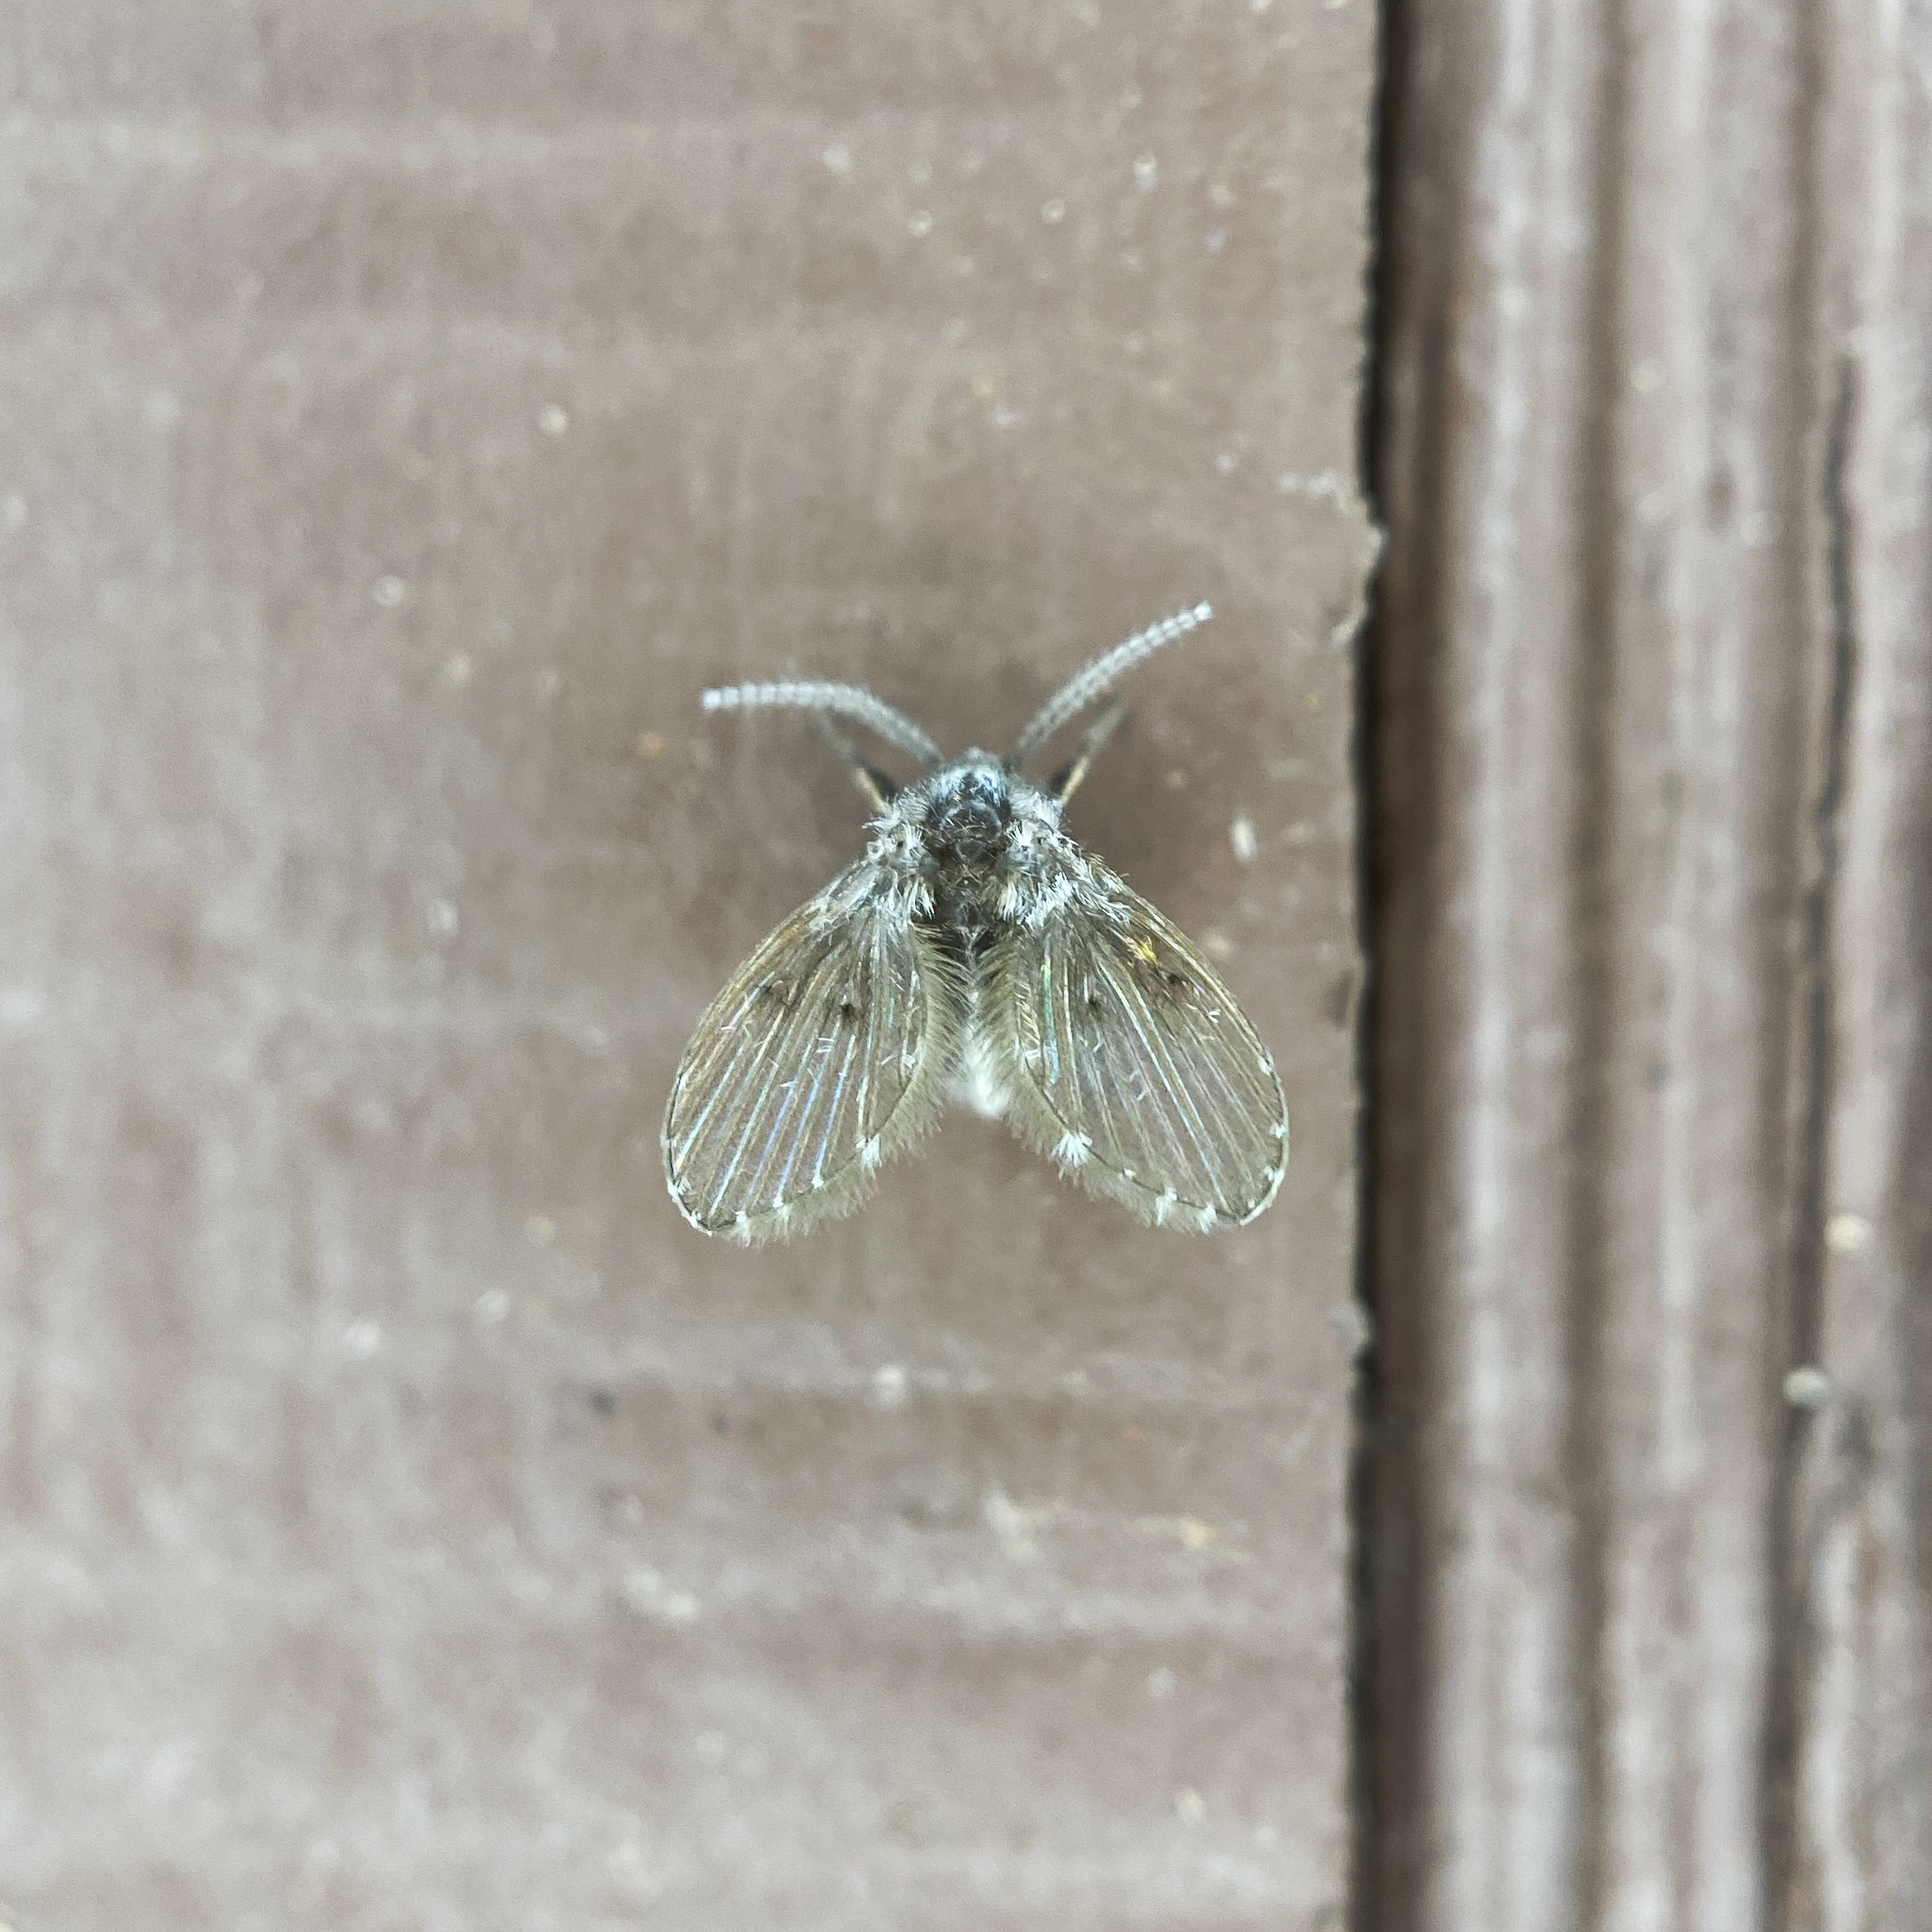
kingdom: Animalia
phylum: Arthropoda
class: Insecta
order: Diptera
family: Psychodidae
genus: Clogmia
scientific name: Clogmia albipunctatus
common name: White-spotted moth fly
